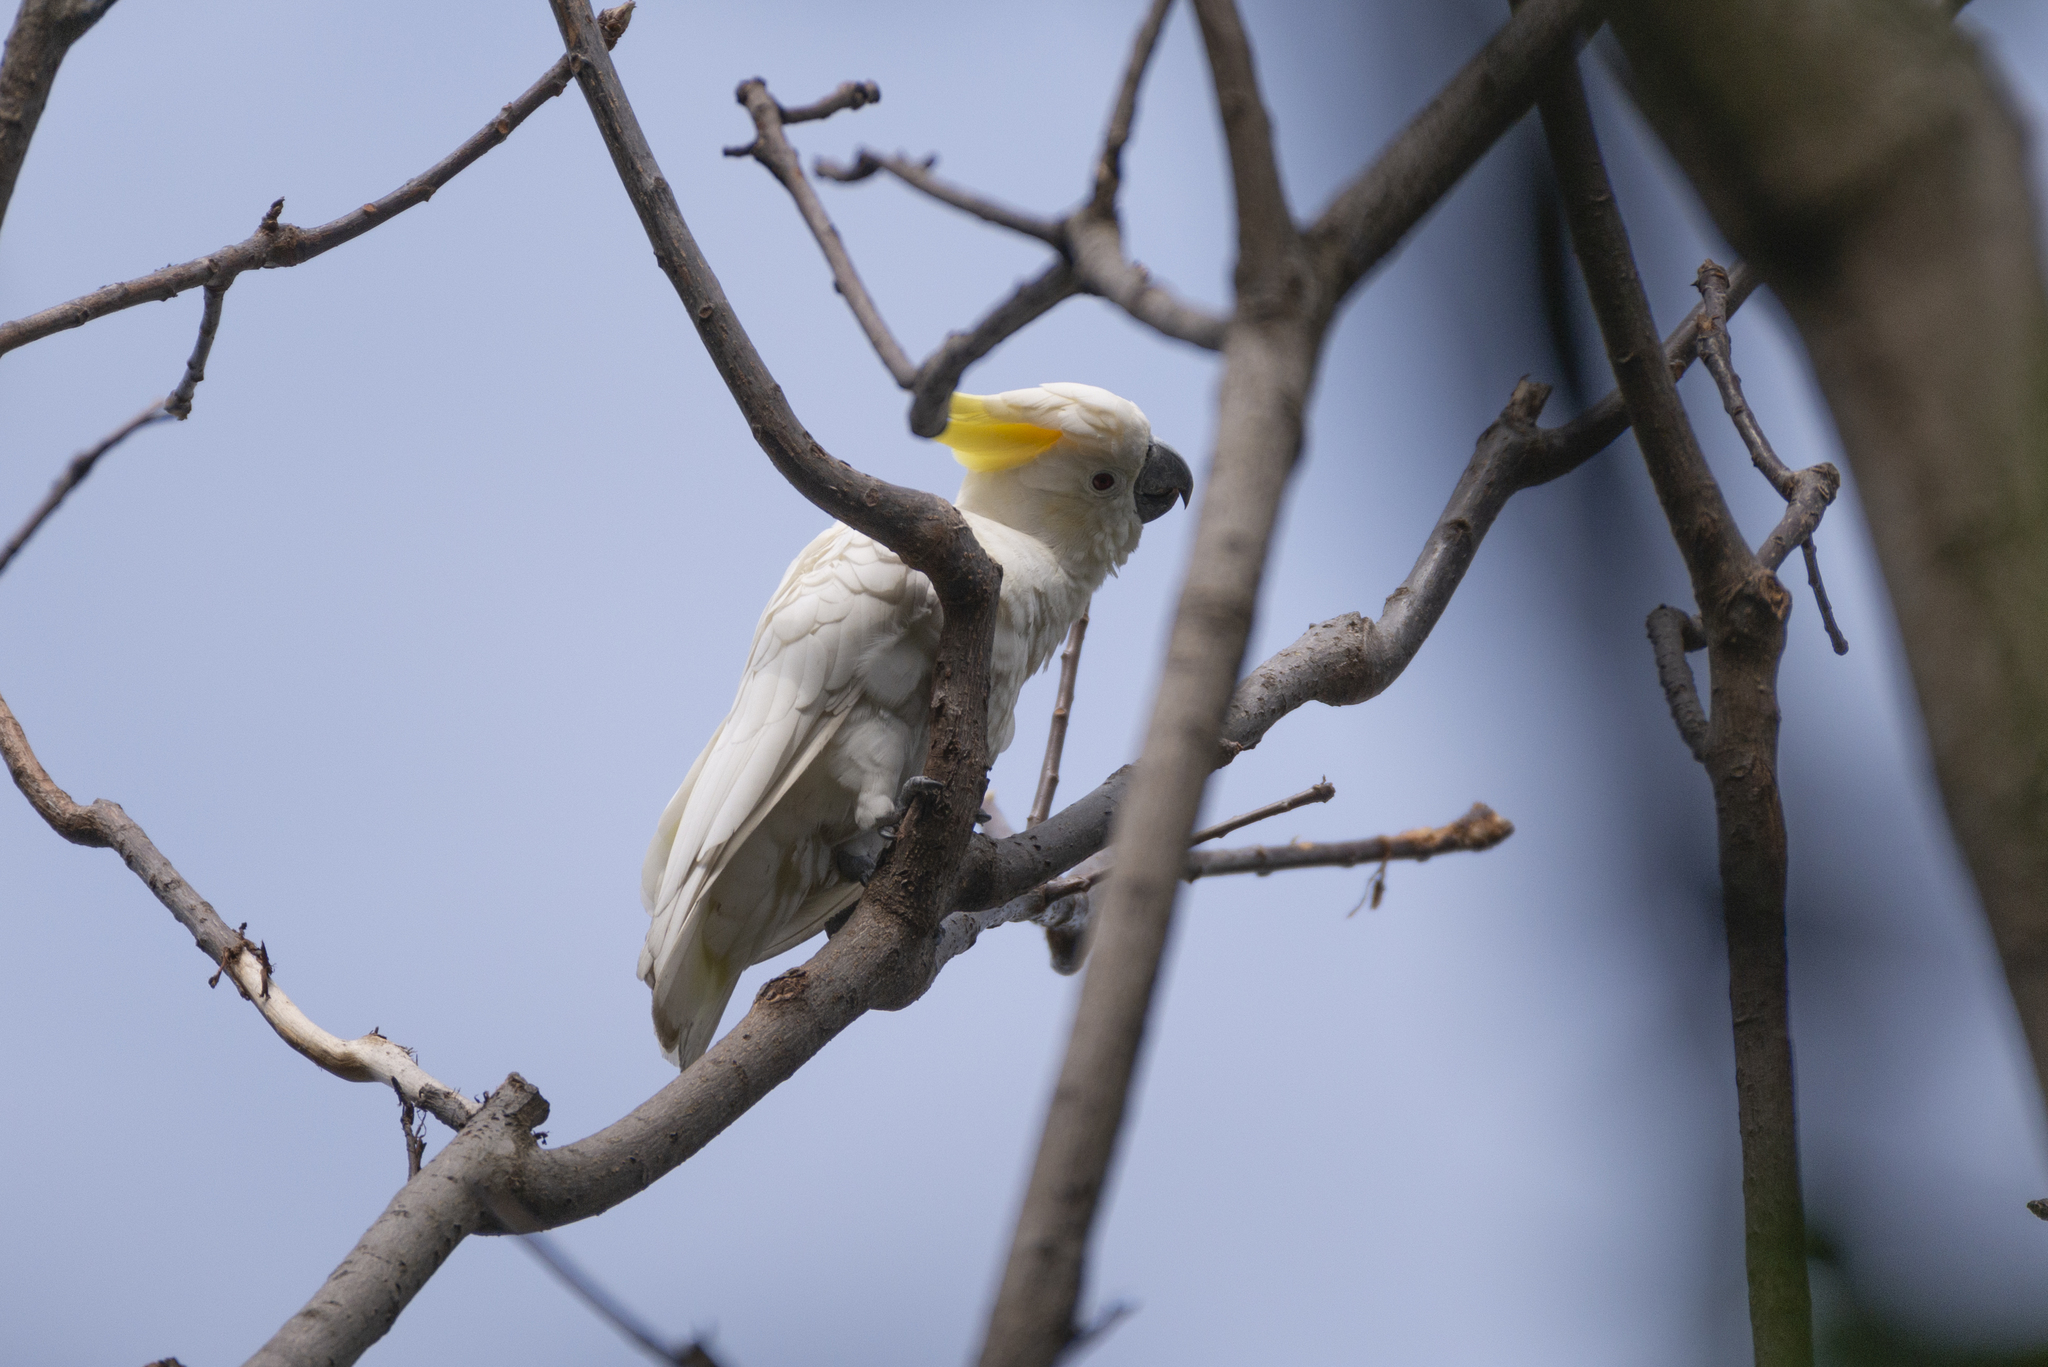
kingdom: Animalia
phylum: Chordata
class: Aves
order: Psittaciformes
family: Psittacidae
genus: Cacatua
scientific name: Cacatua sulphurea
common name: Yellow-crested cockatoo
